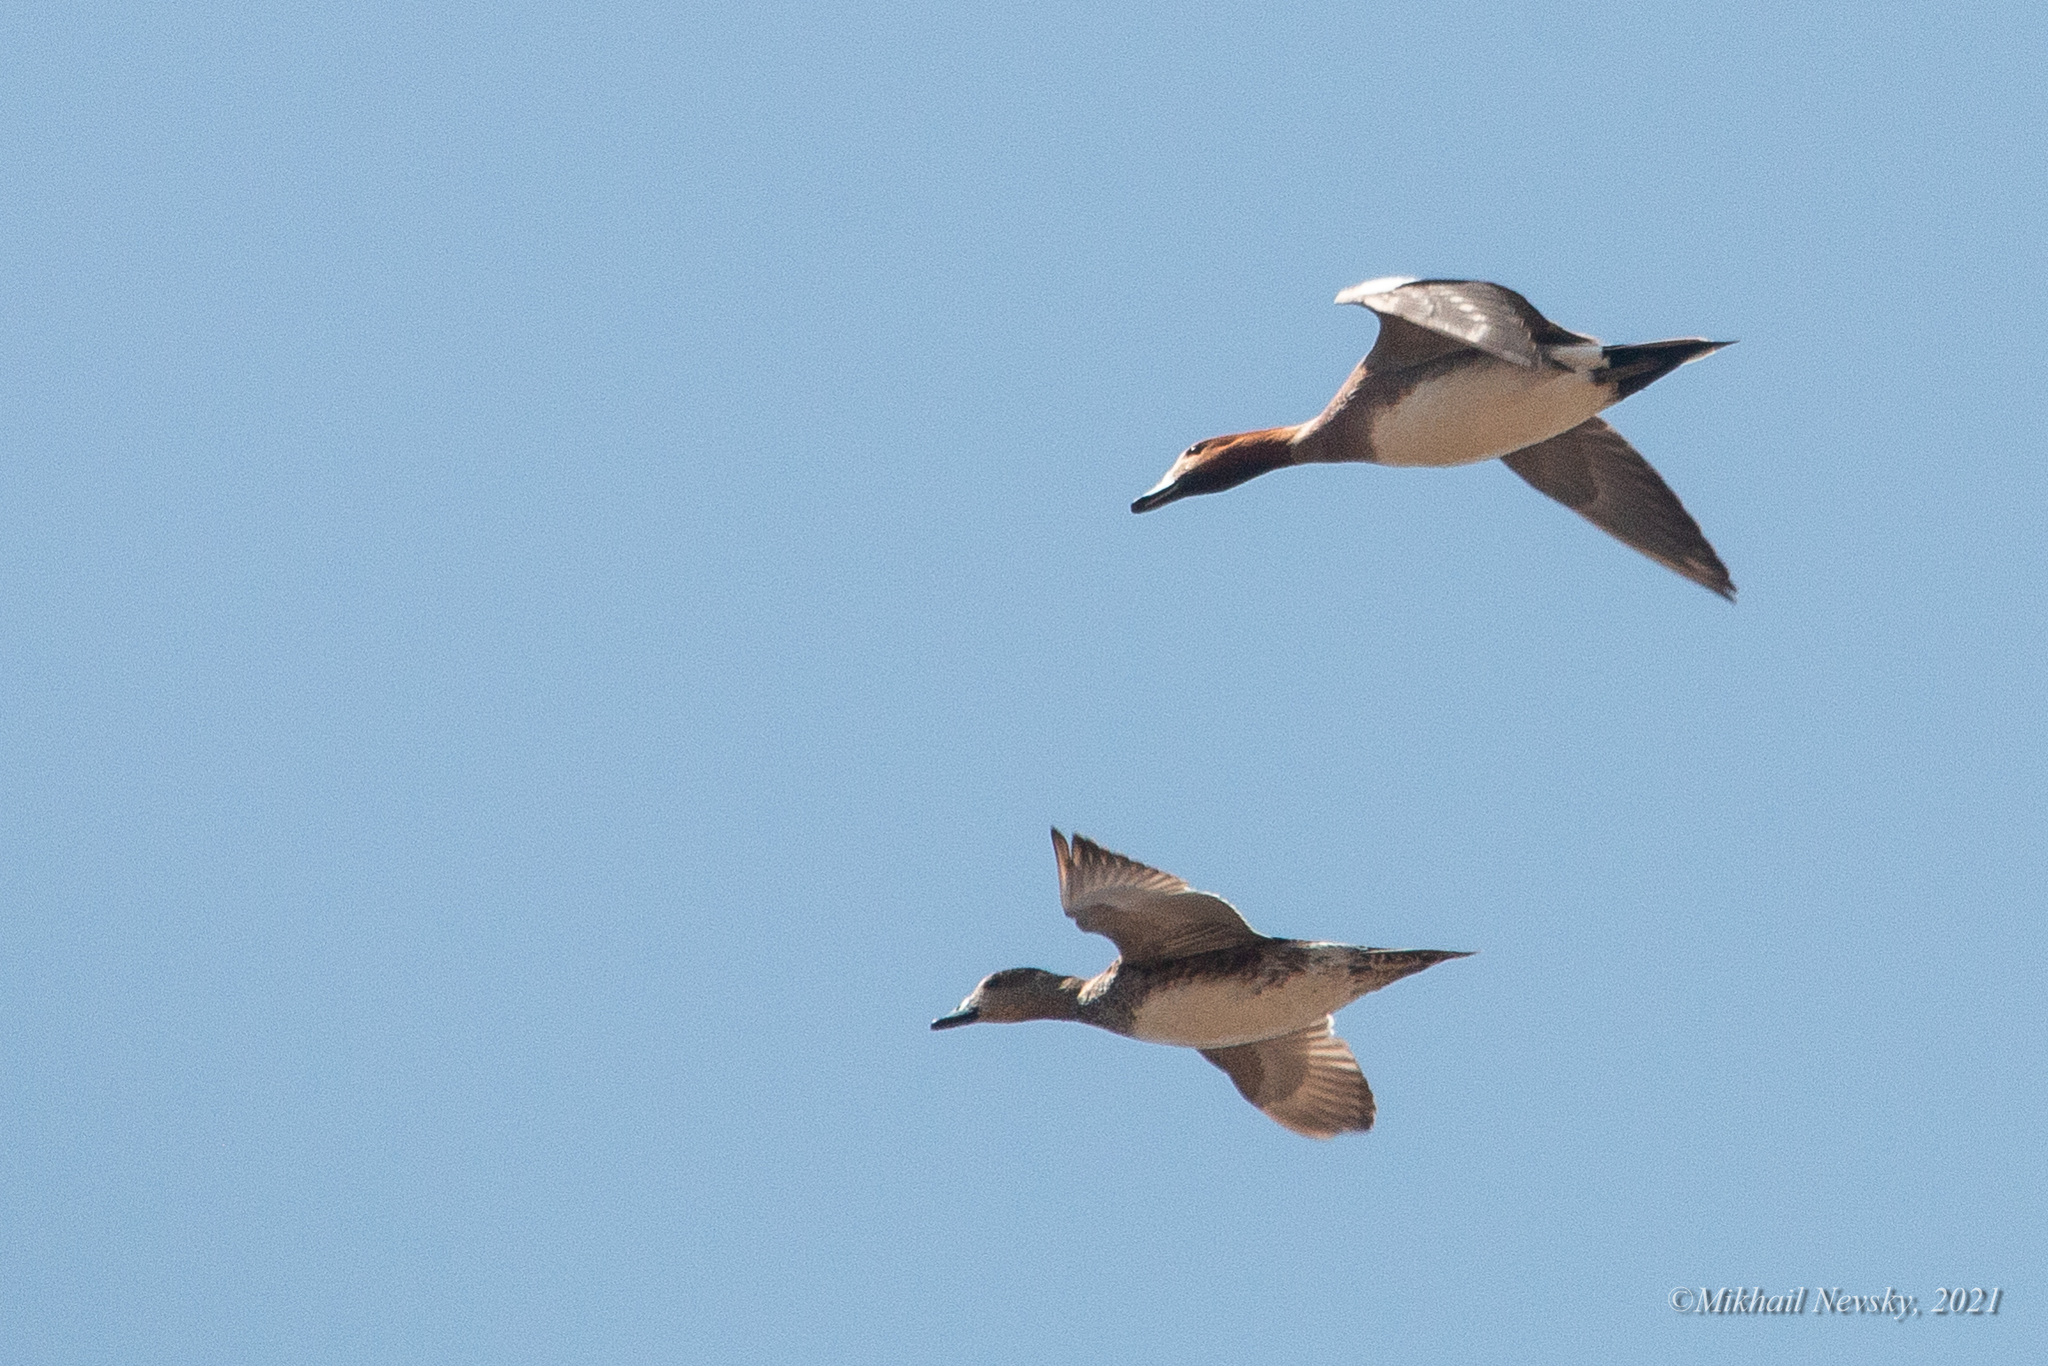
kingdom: Animalia
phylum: Chordata
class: Aves
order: Anseriformes
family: Anatidae
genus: Mareca
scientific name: Mareca penelope
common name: Eurasian wigeon
